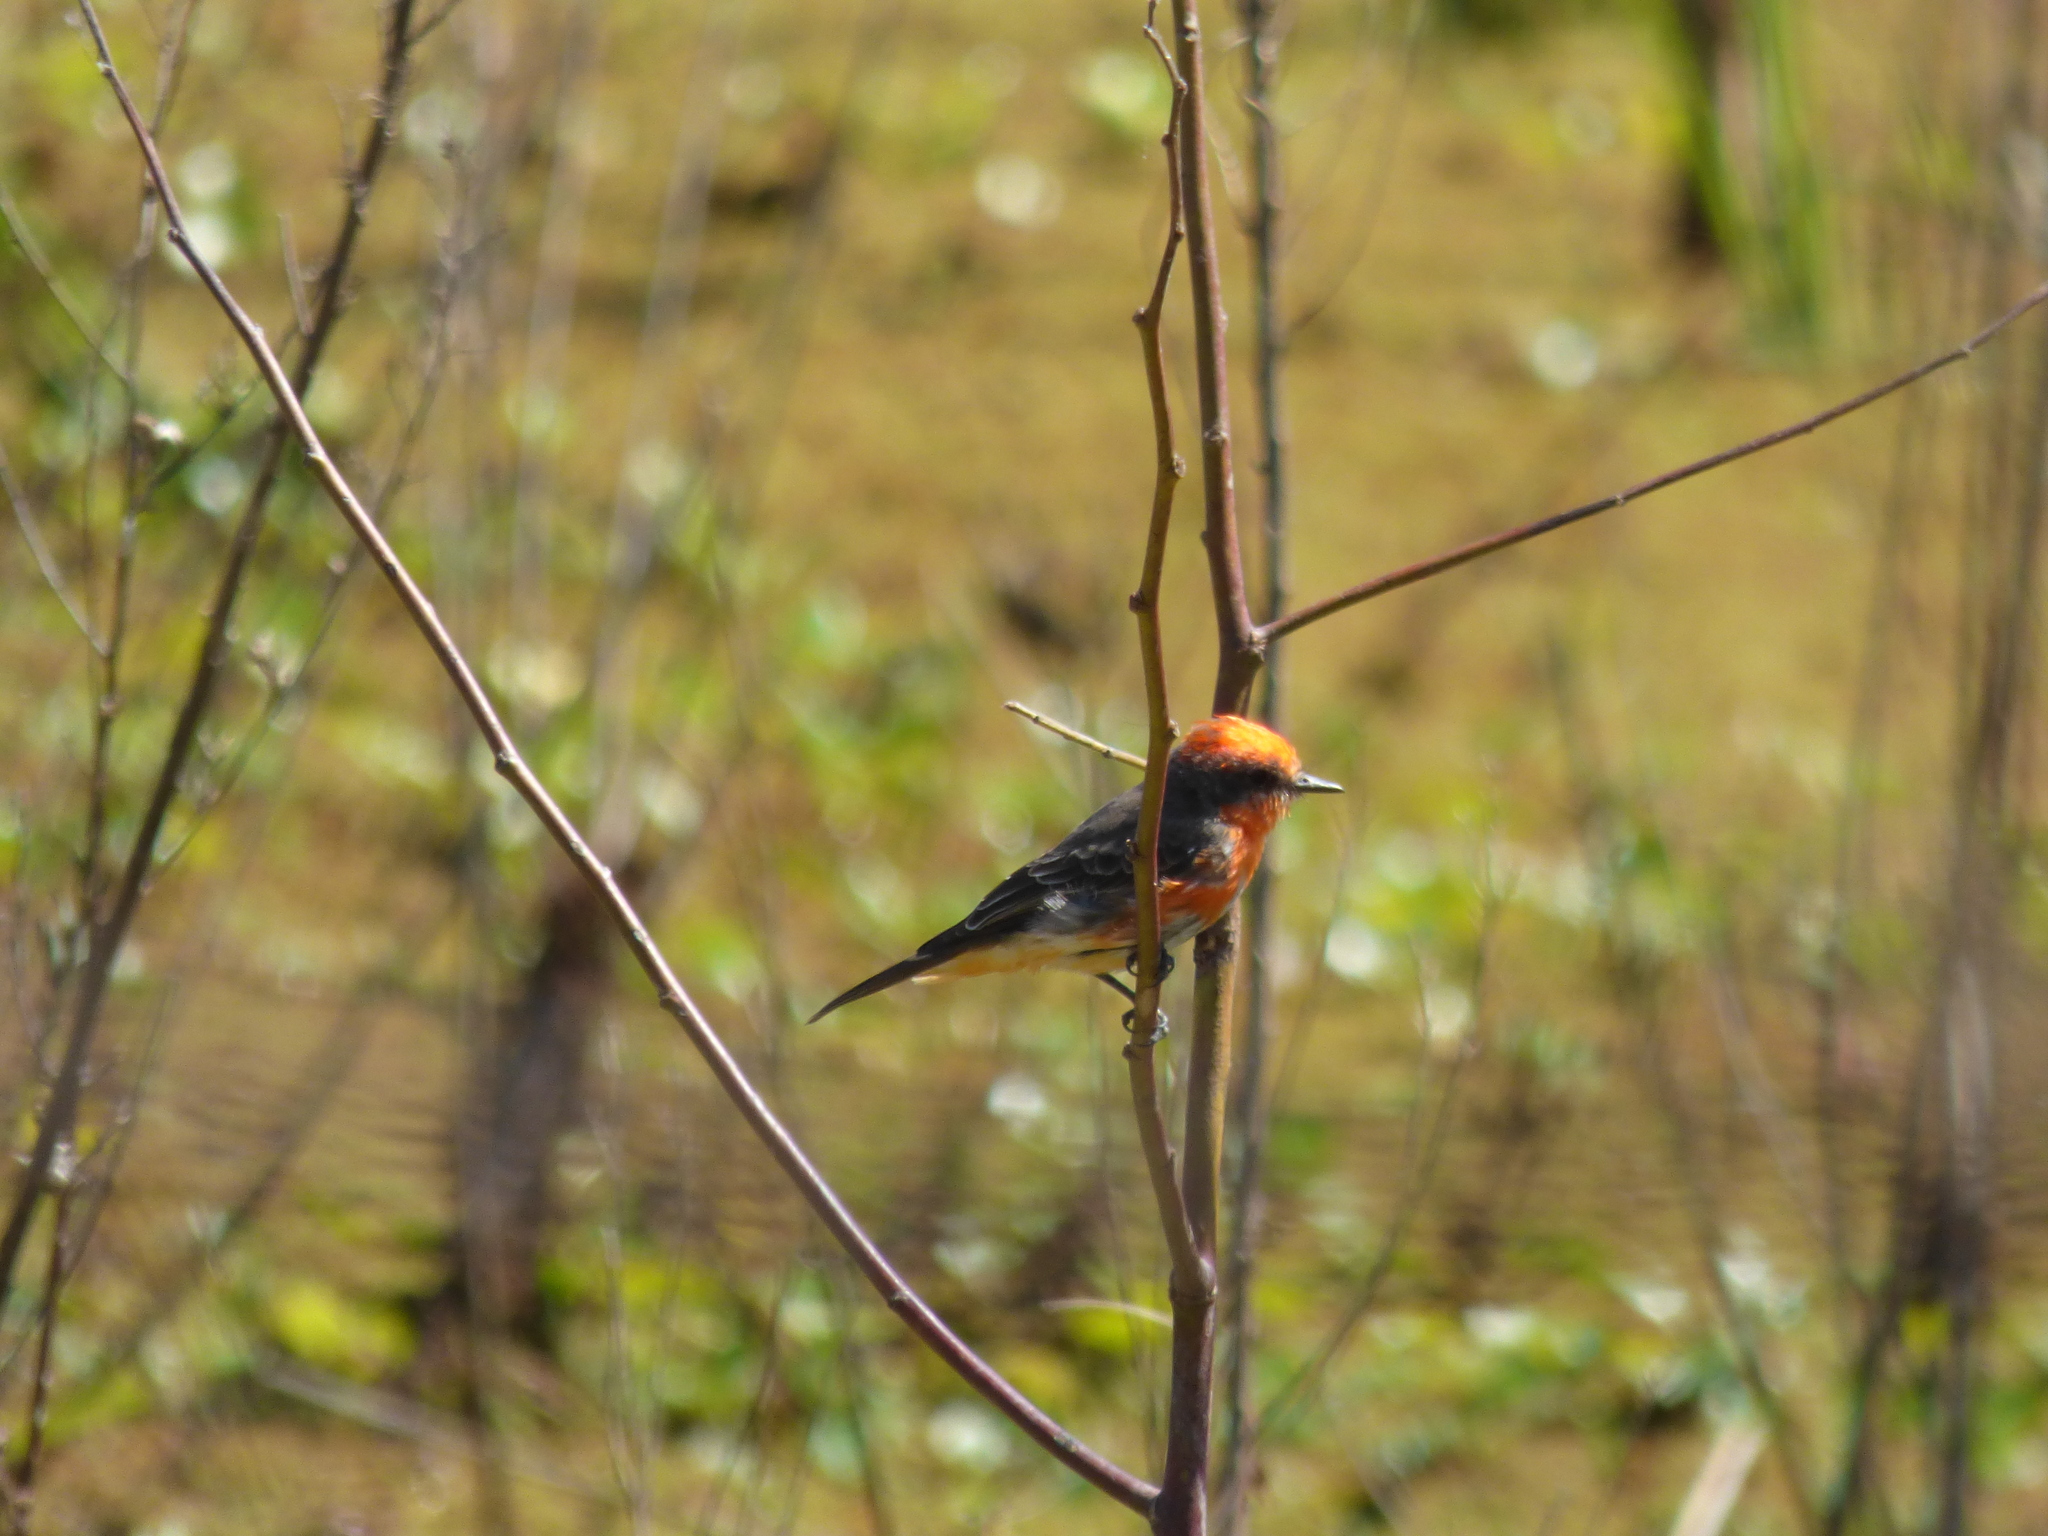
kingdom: Animalia
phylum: Chordata
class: Aves
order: Passeriformes
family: Tyrannidae
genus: Pyrocephalus
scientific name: Pyrocephalus rubinus
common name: Vermilion flycatcher
